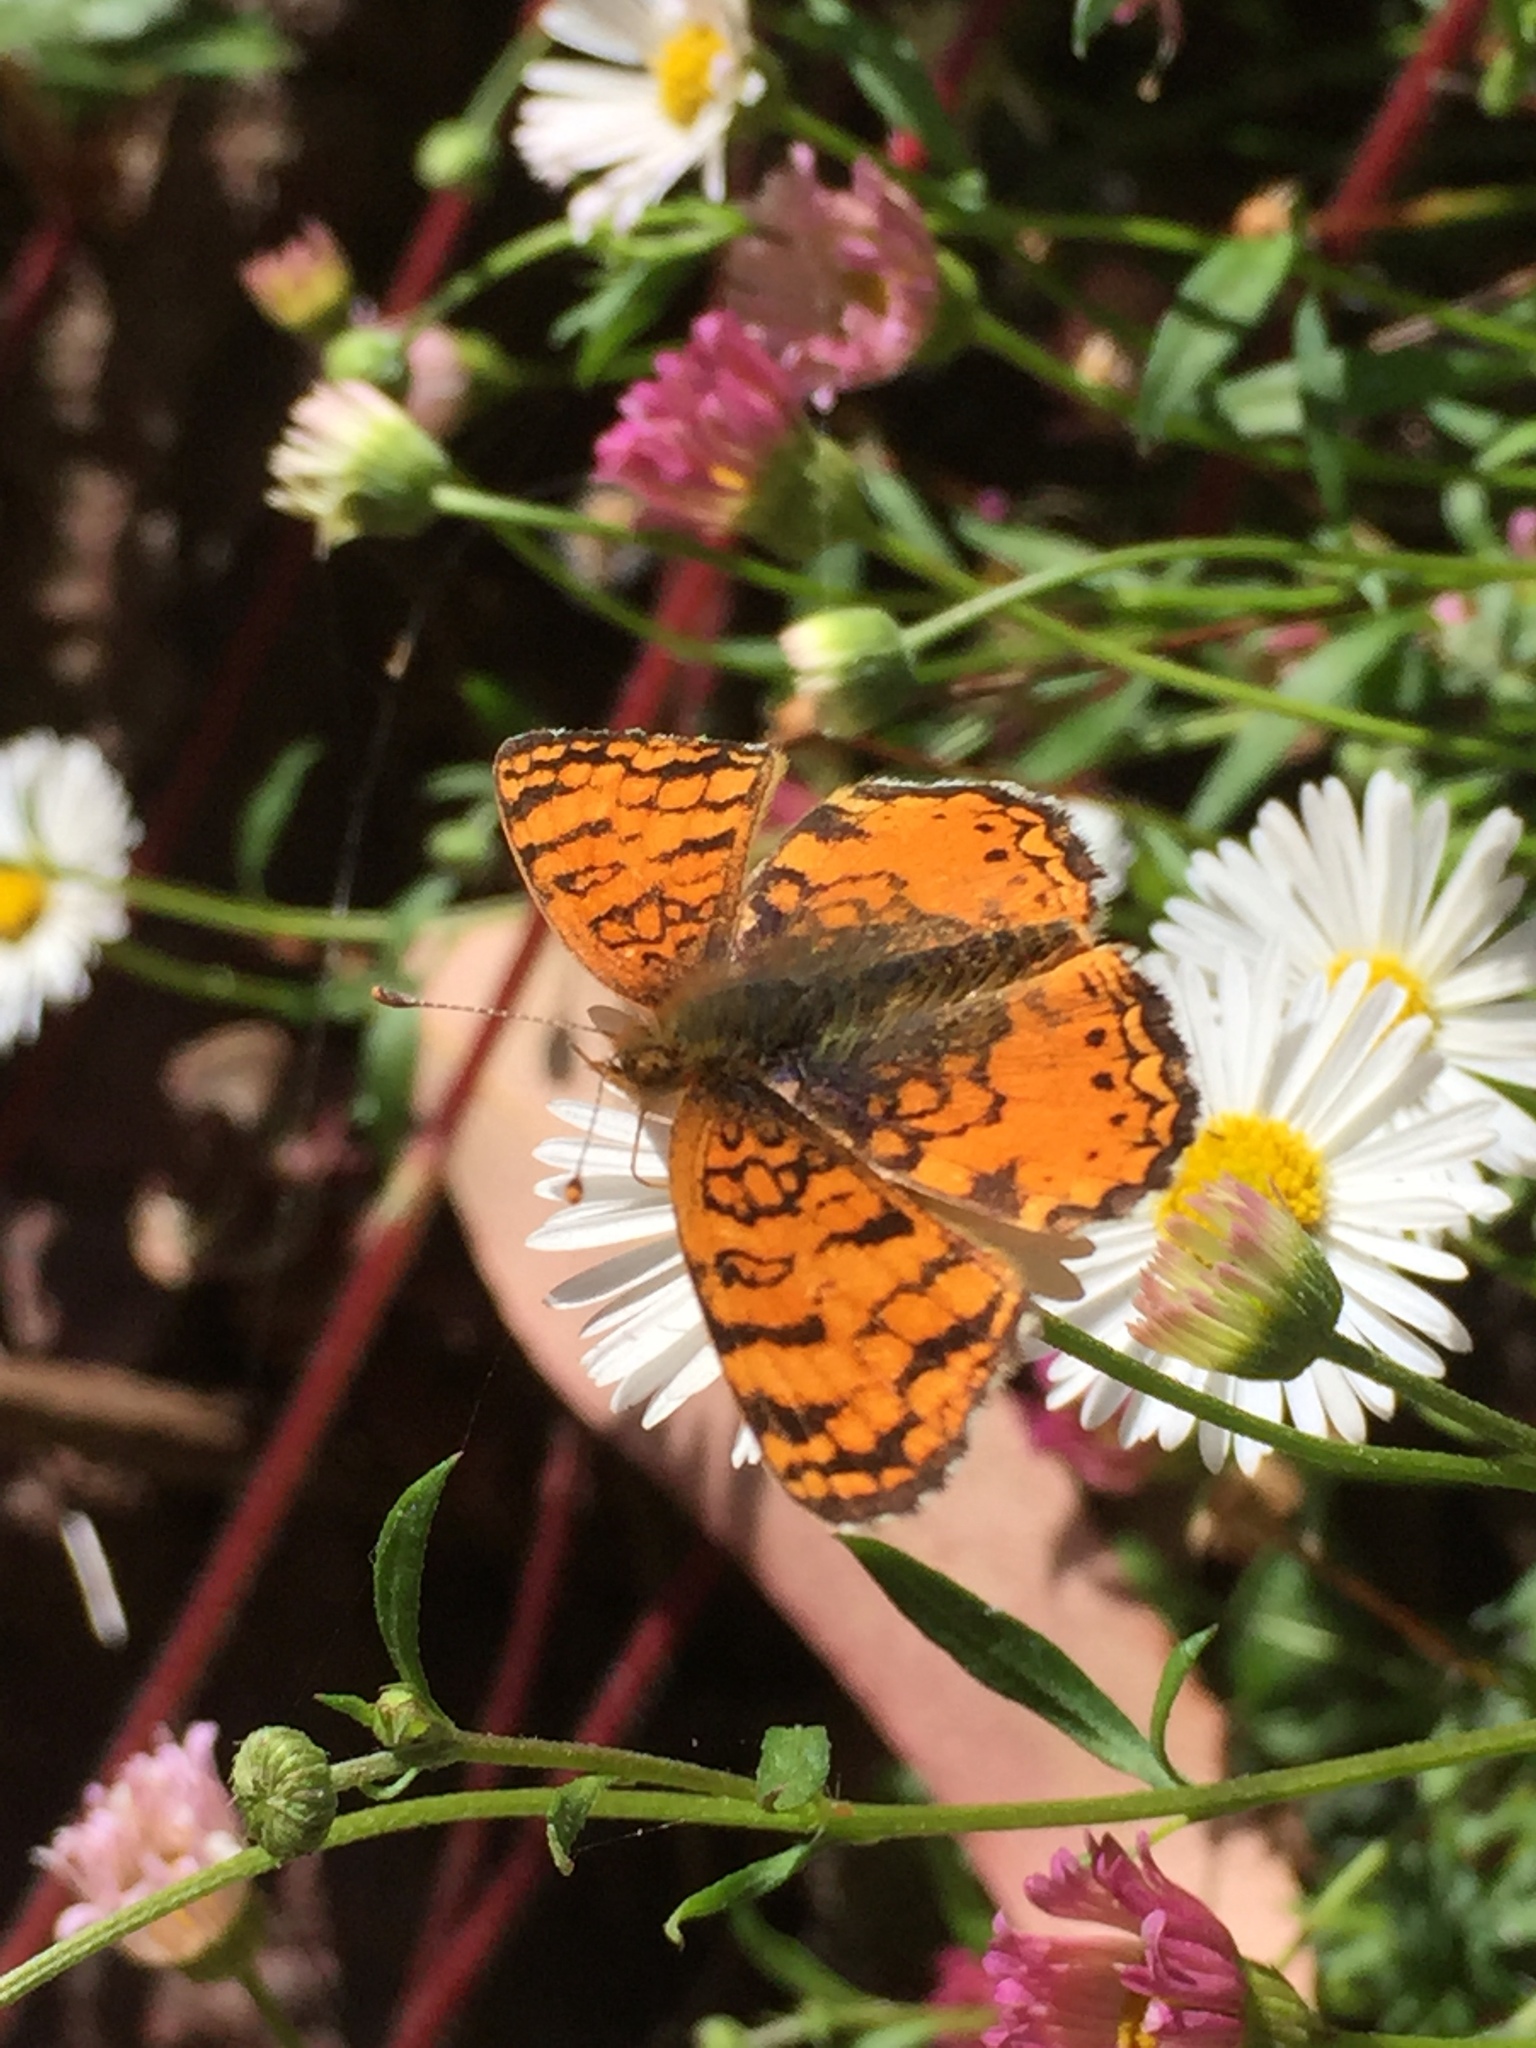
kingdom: Animalia
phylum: Arthropoda
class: Insecta
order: Lepidoptera
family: Nymphalidae
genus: Eresia
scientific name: Eresia aveyrona
